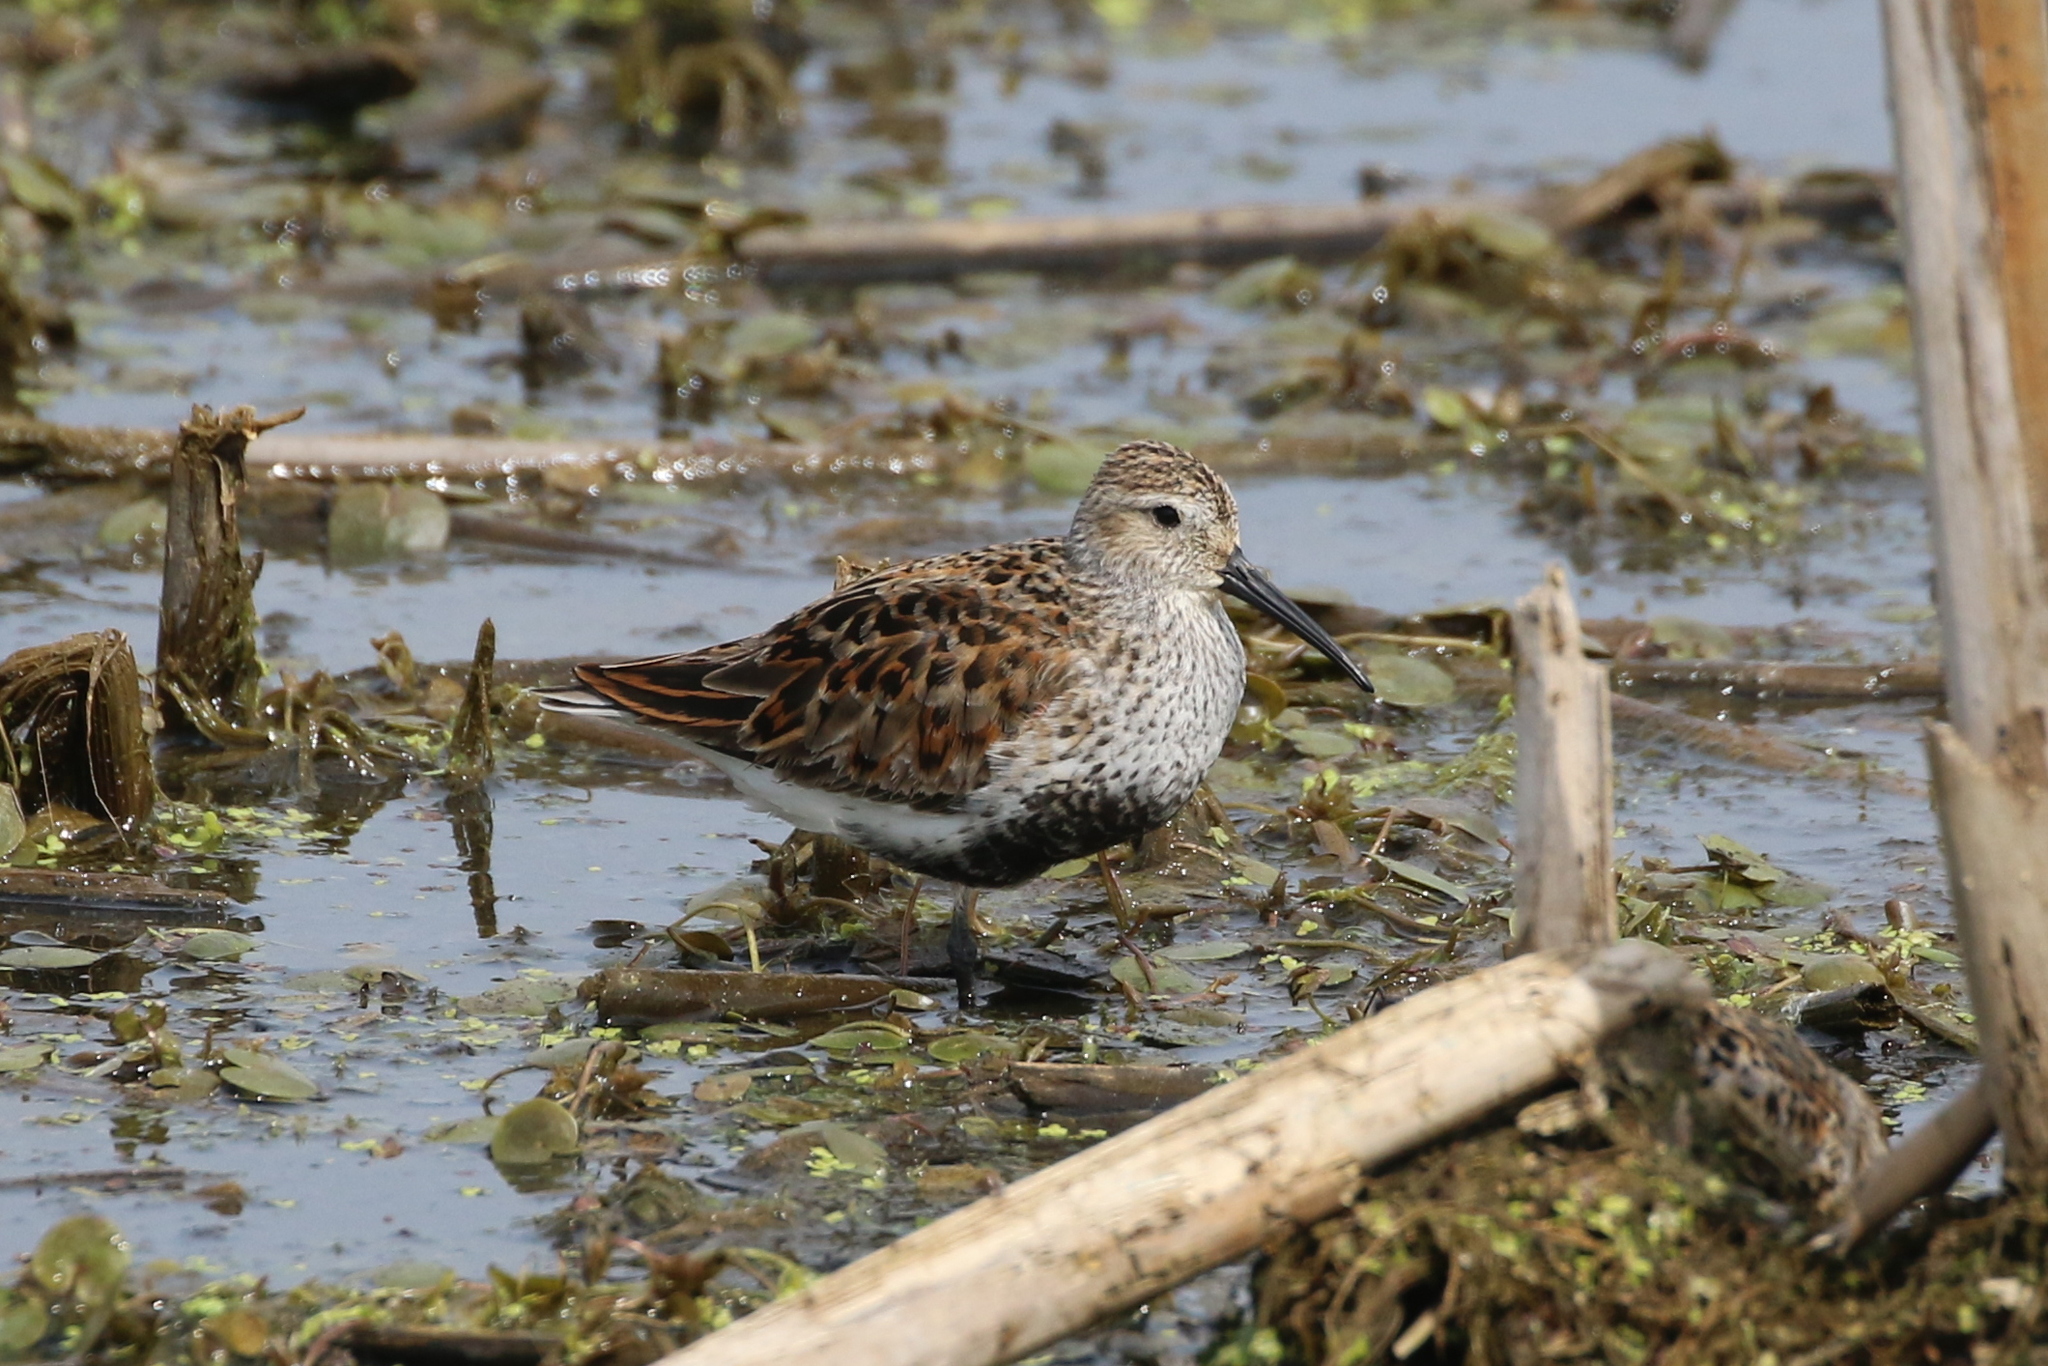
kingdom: Animalia
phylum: Chordata
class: Aves
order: Charadriiformes
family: Scolopacidae
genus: Calidris
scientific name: Calidris alpina
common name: Dunlin
